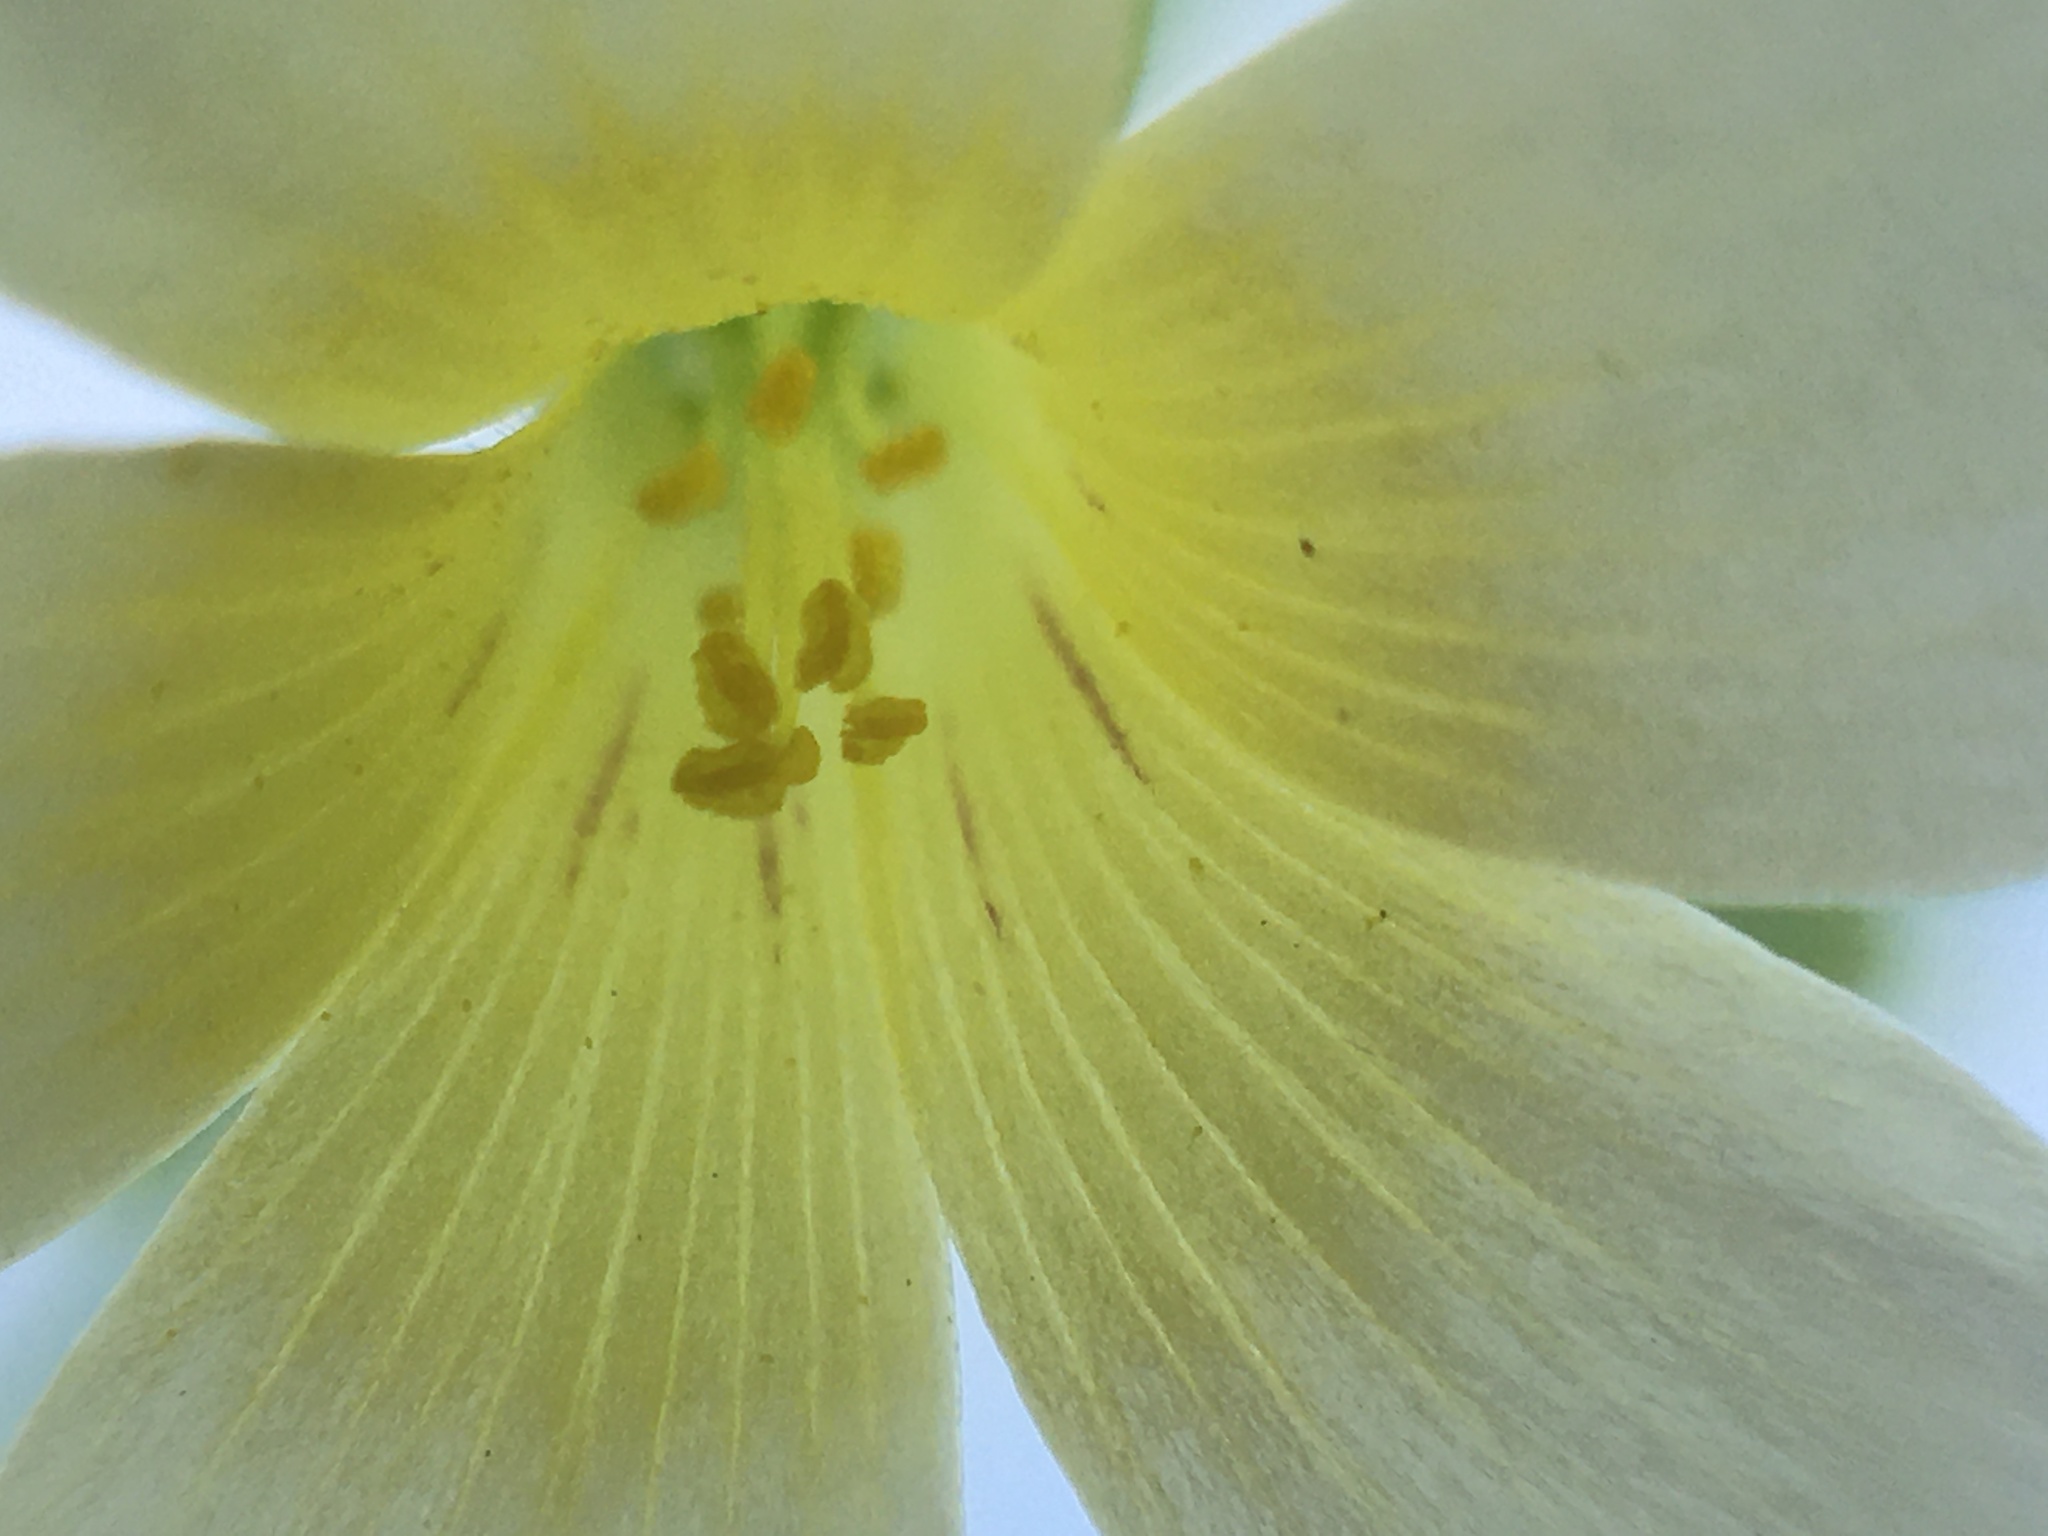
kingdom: Plantae
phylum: Tracheophyta
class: Magnoliopsida
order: Oxalidales
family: Oxalidaceae
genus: Oxalis
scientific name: Oxalis niederleinii
